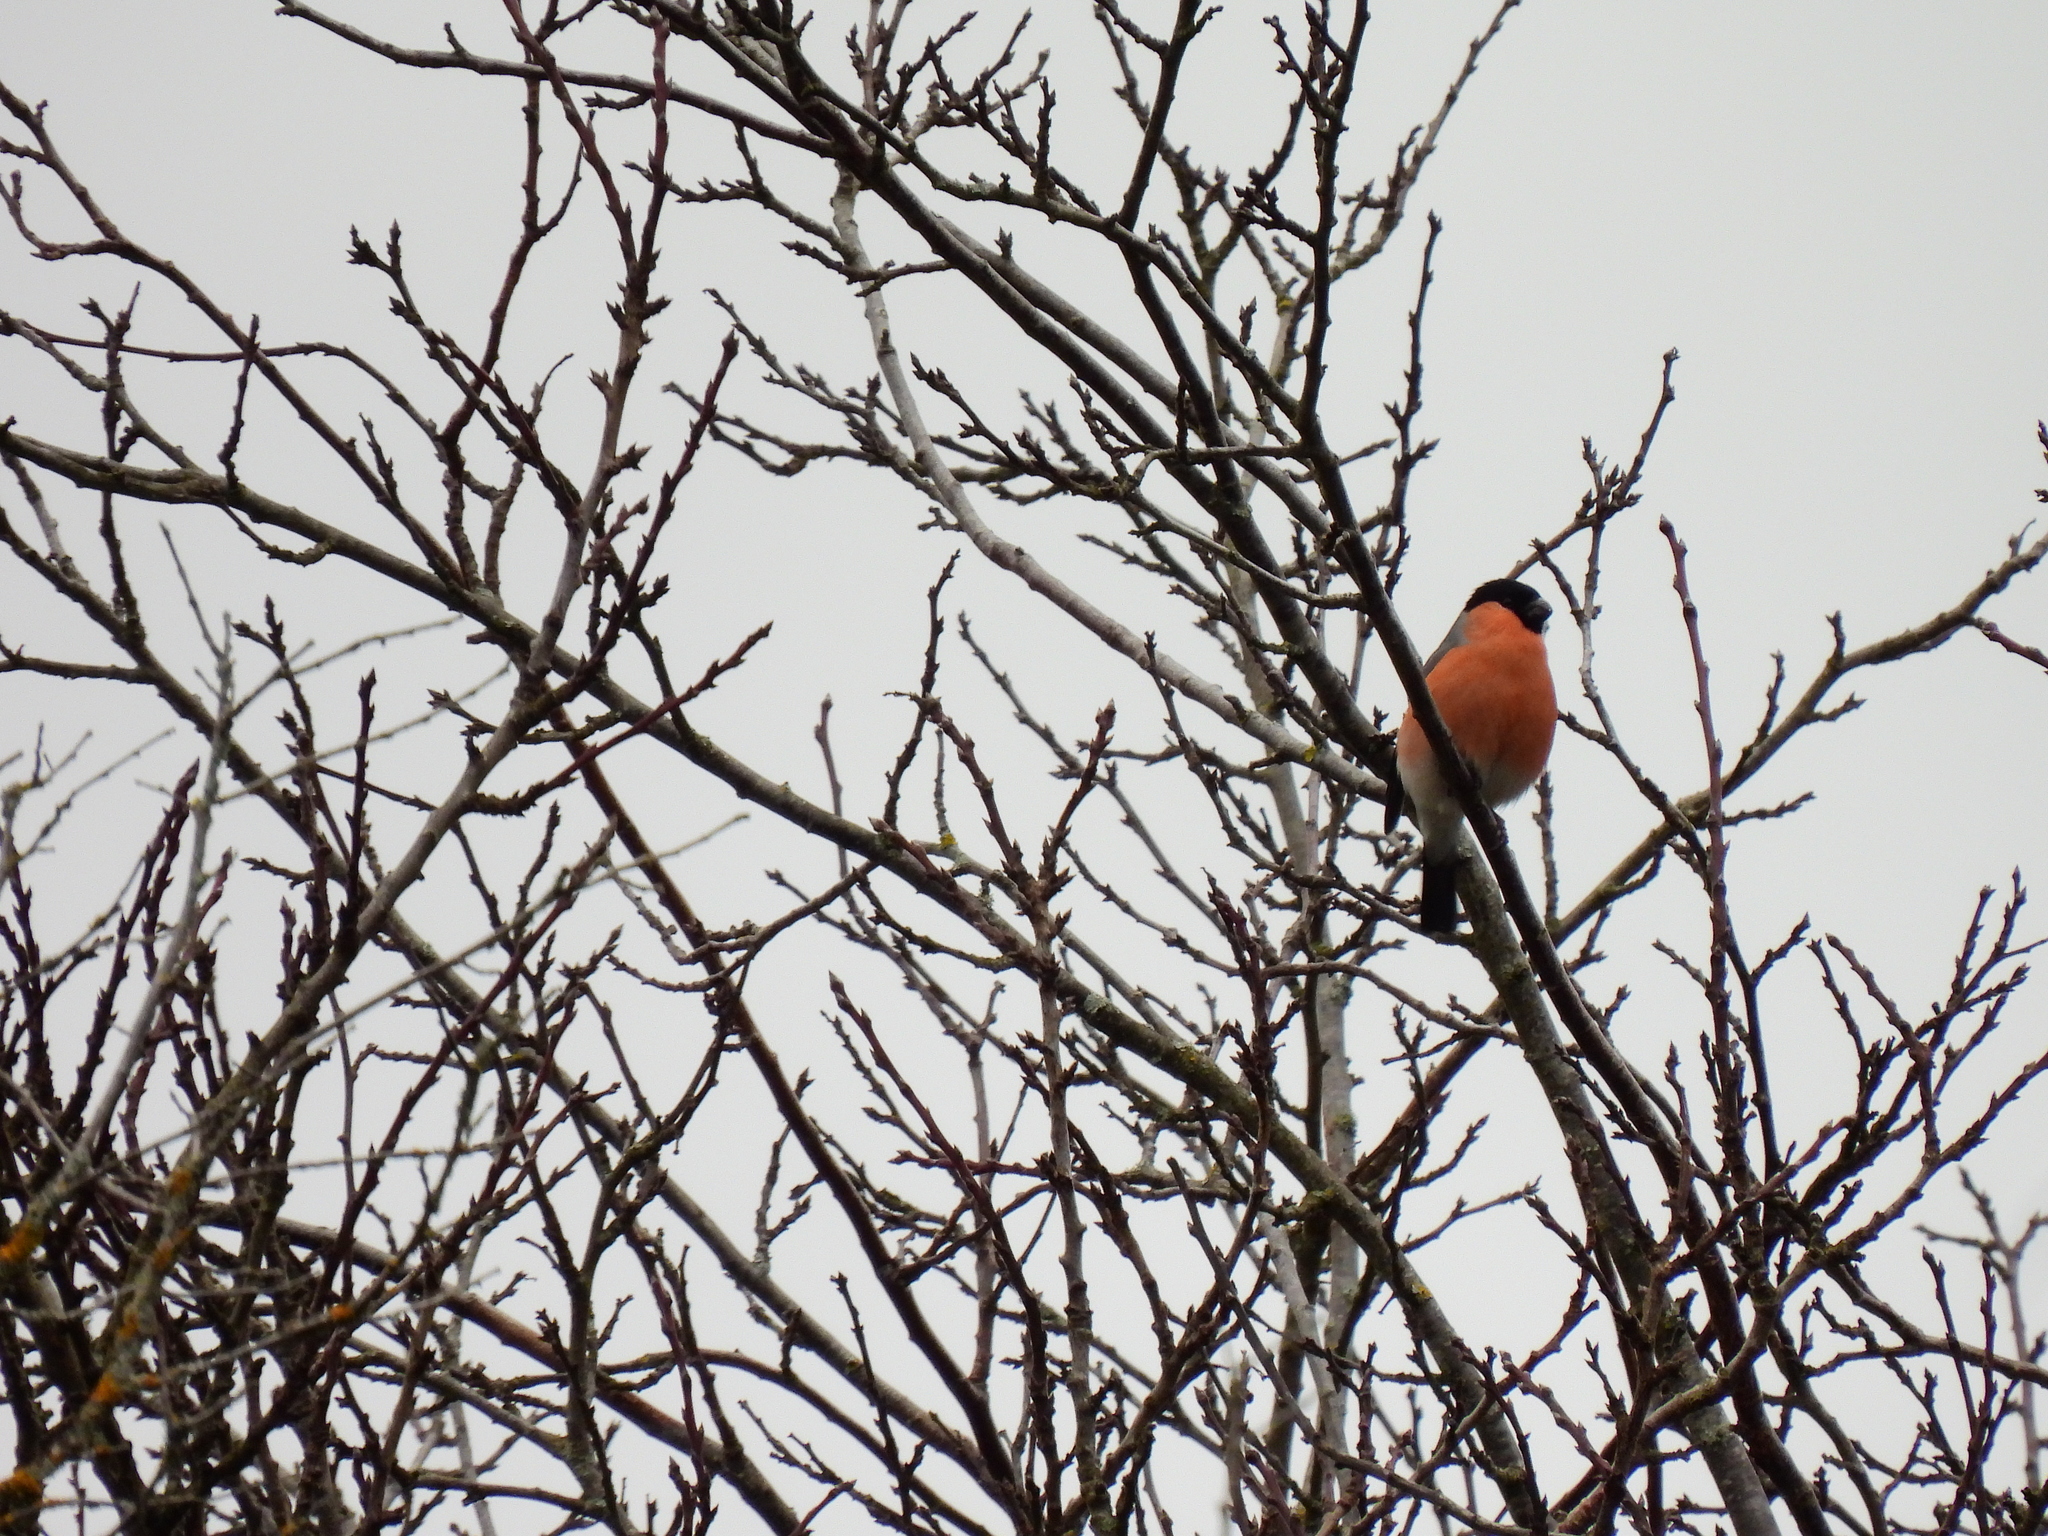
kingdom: Animalia
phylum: Chordata
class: Aves
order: Passeriformes
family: Fringillidae
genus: Pyrrhula
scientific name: Pyrrhula pyrrhula
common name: Eurasian bullfinch
